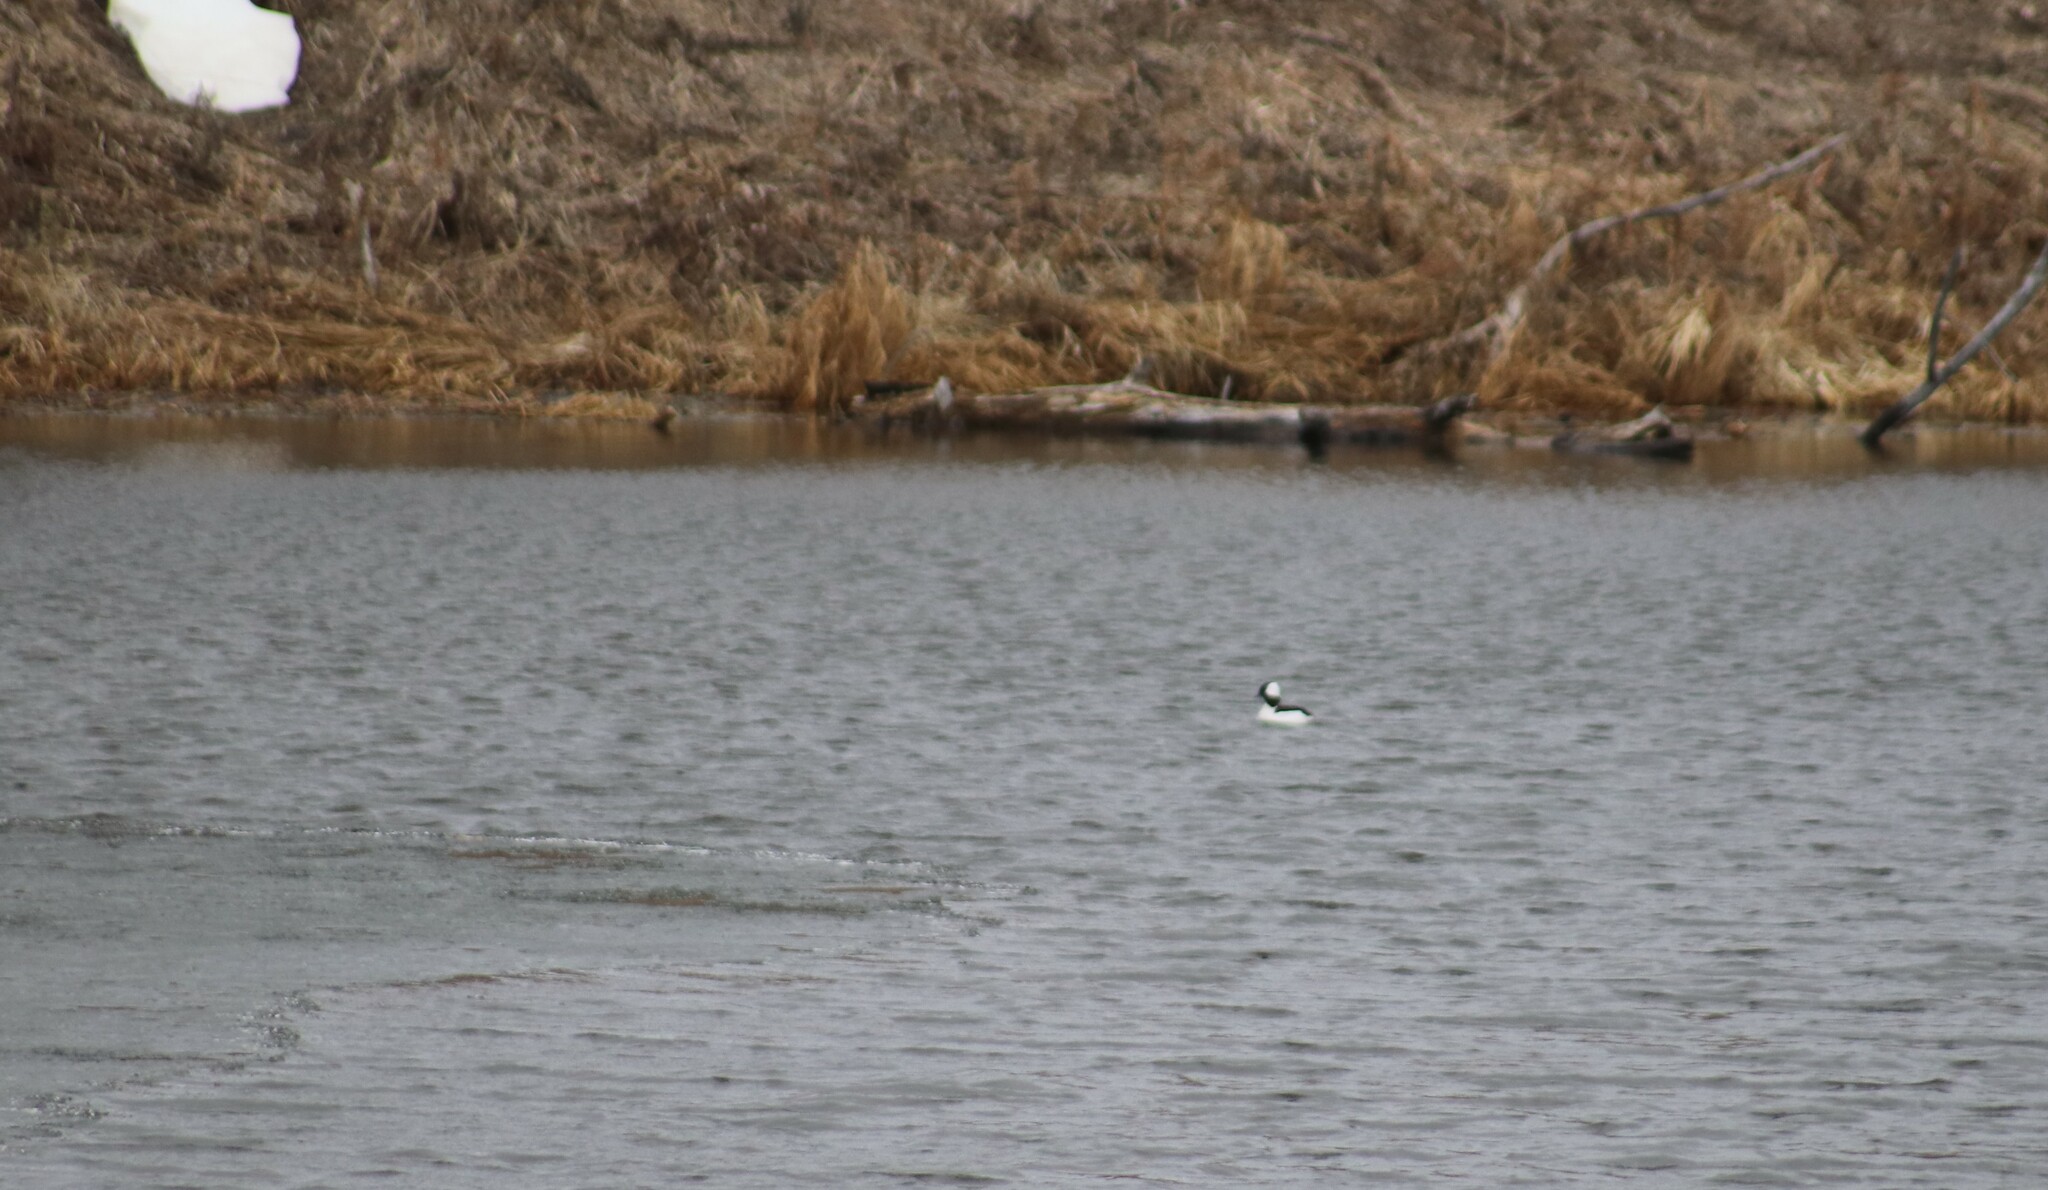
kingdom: Animalia
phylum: Chordata
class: Aves
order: Anseriformes
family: Anatidae
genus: Bucephala
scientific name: Bucephala albeola
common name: Bufflehead
